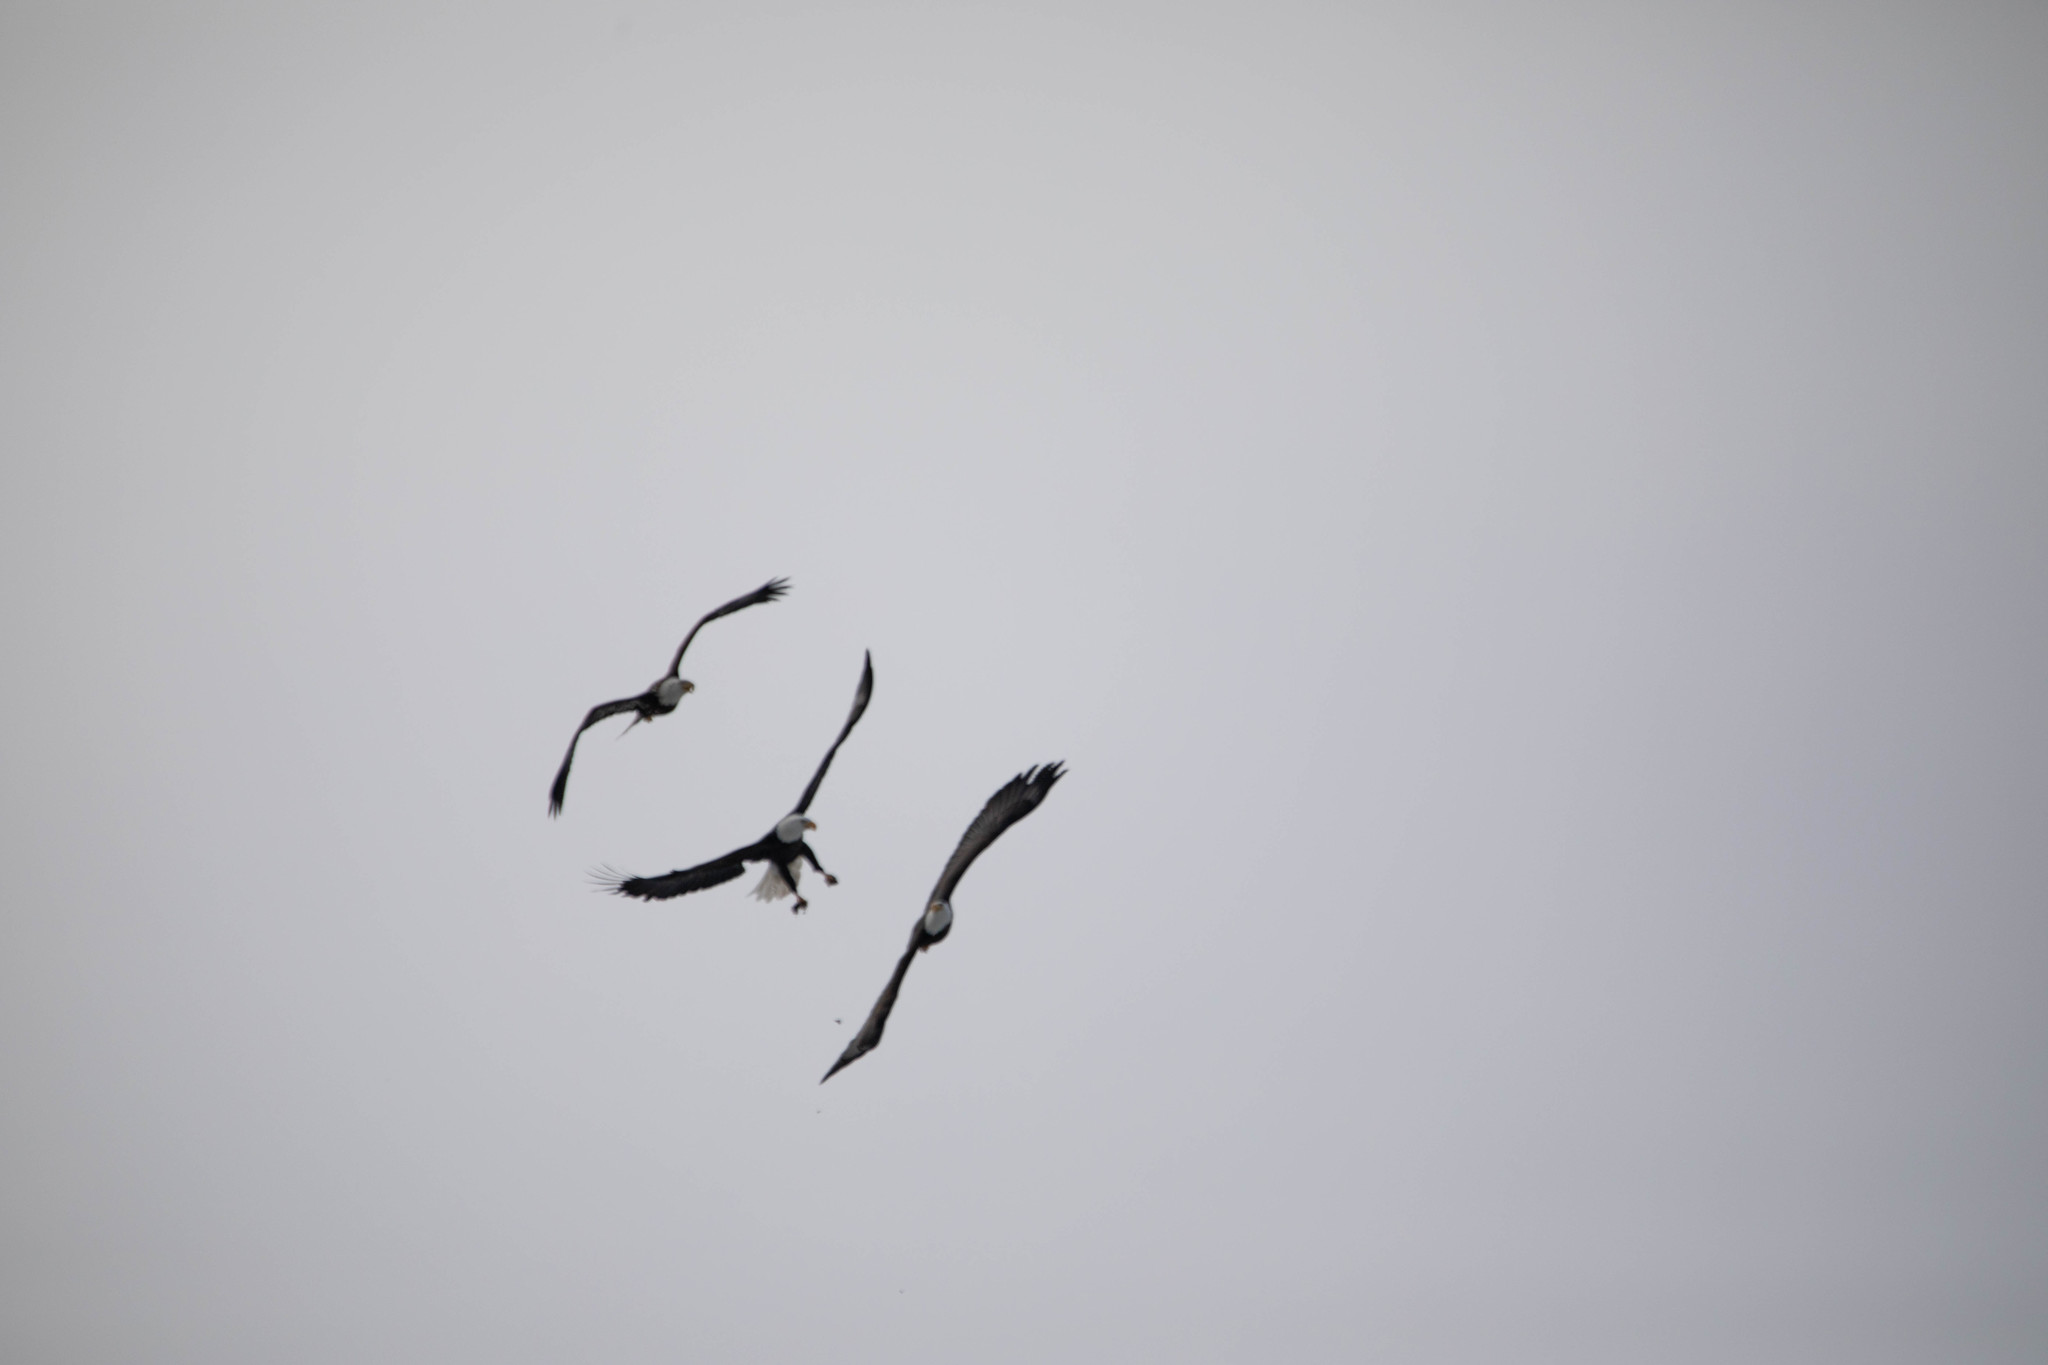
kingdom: Animalia
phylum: Chordata
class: Aves
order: Accipitriformes
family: Accipitridae
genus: Haliaeetus
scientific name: Haliaeetus leucocephalus
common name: Bald eagle
